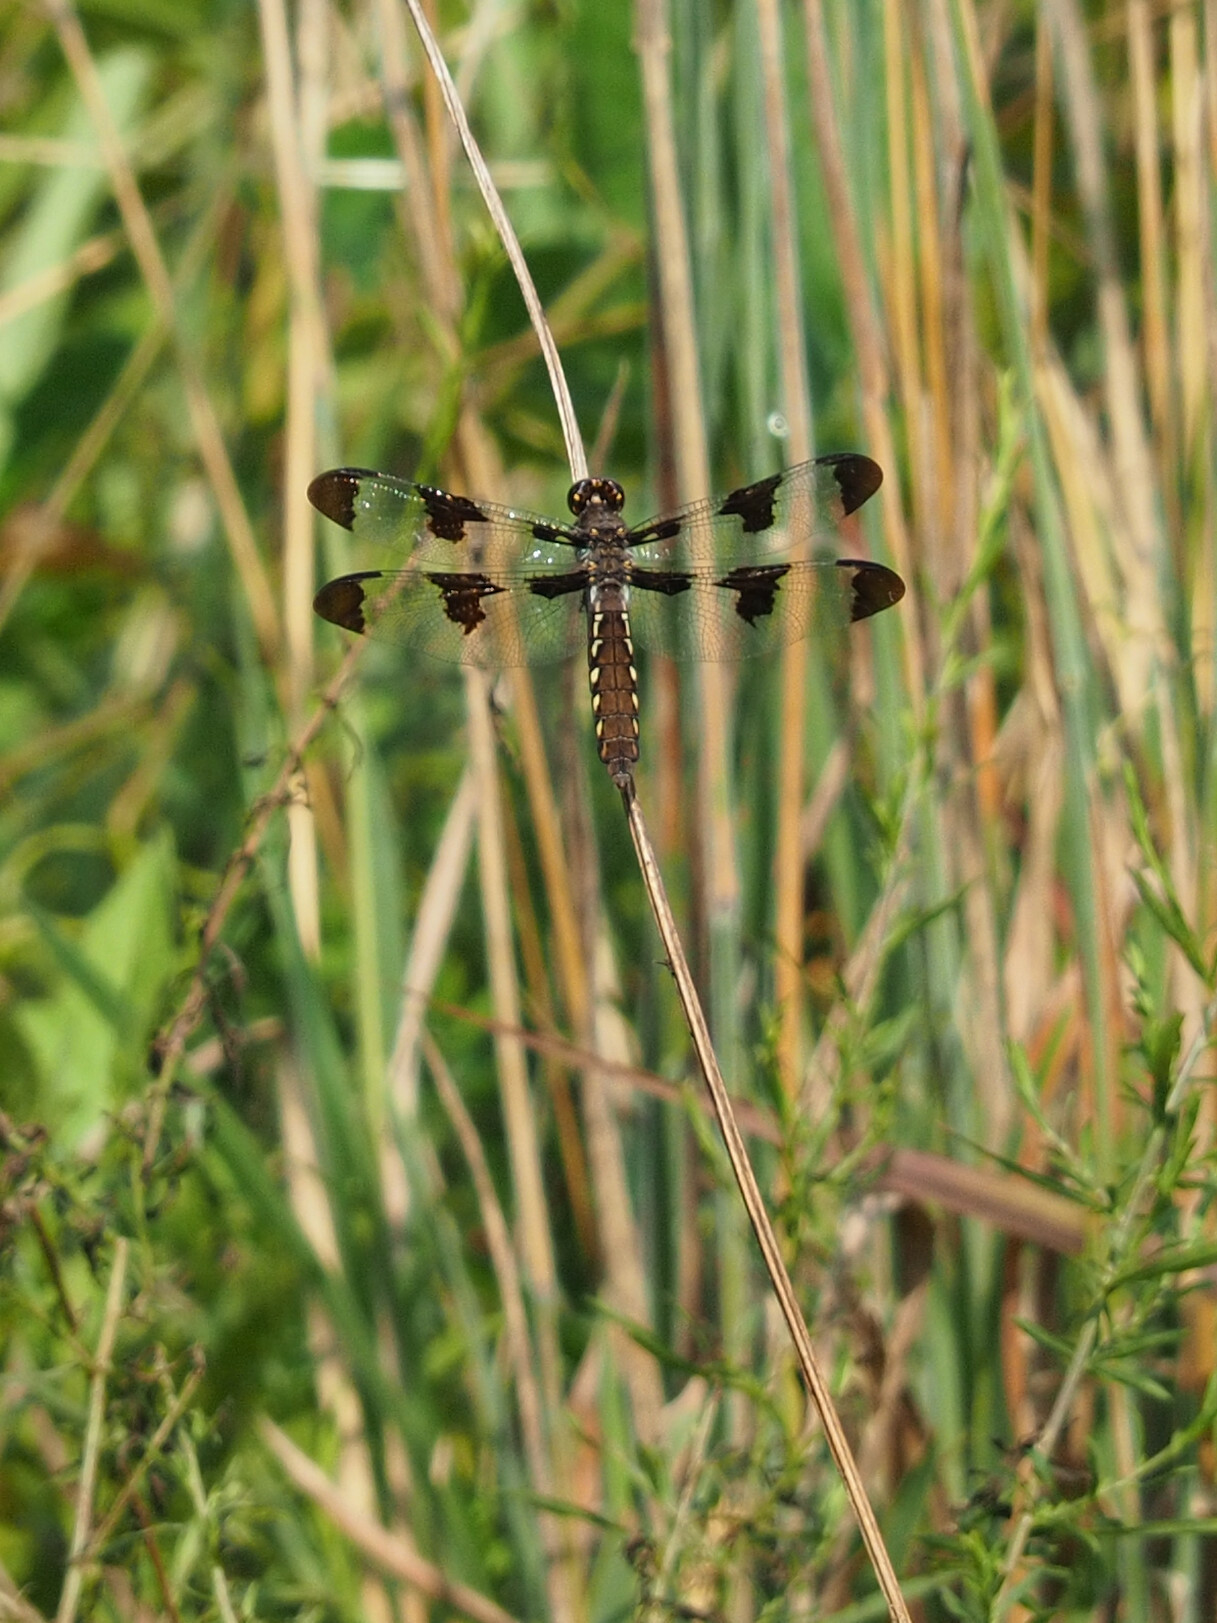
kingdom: Animalia
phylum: Arthropoda
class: Insecta
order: Odonata
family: Libellulidae
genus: Plathemis
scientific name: Plathemis lydia
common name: Common whitetail
